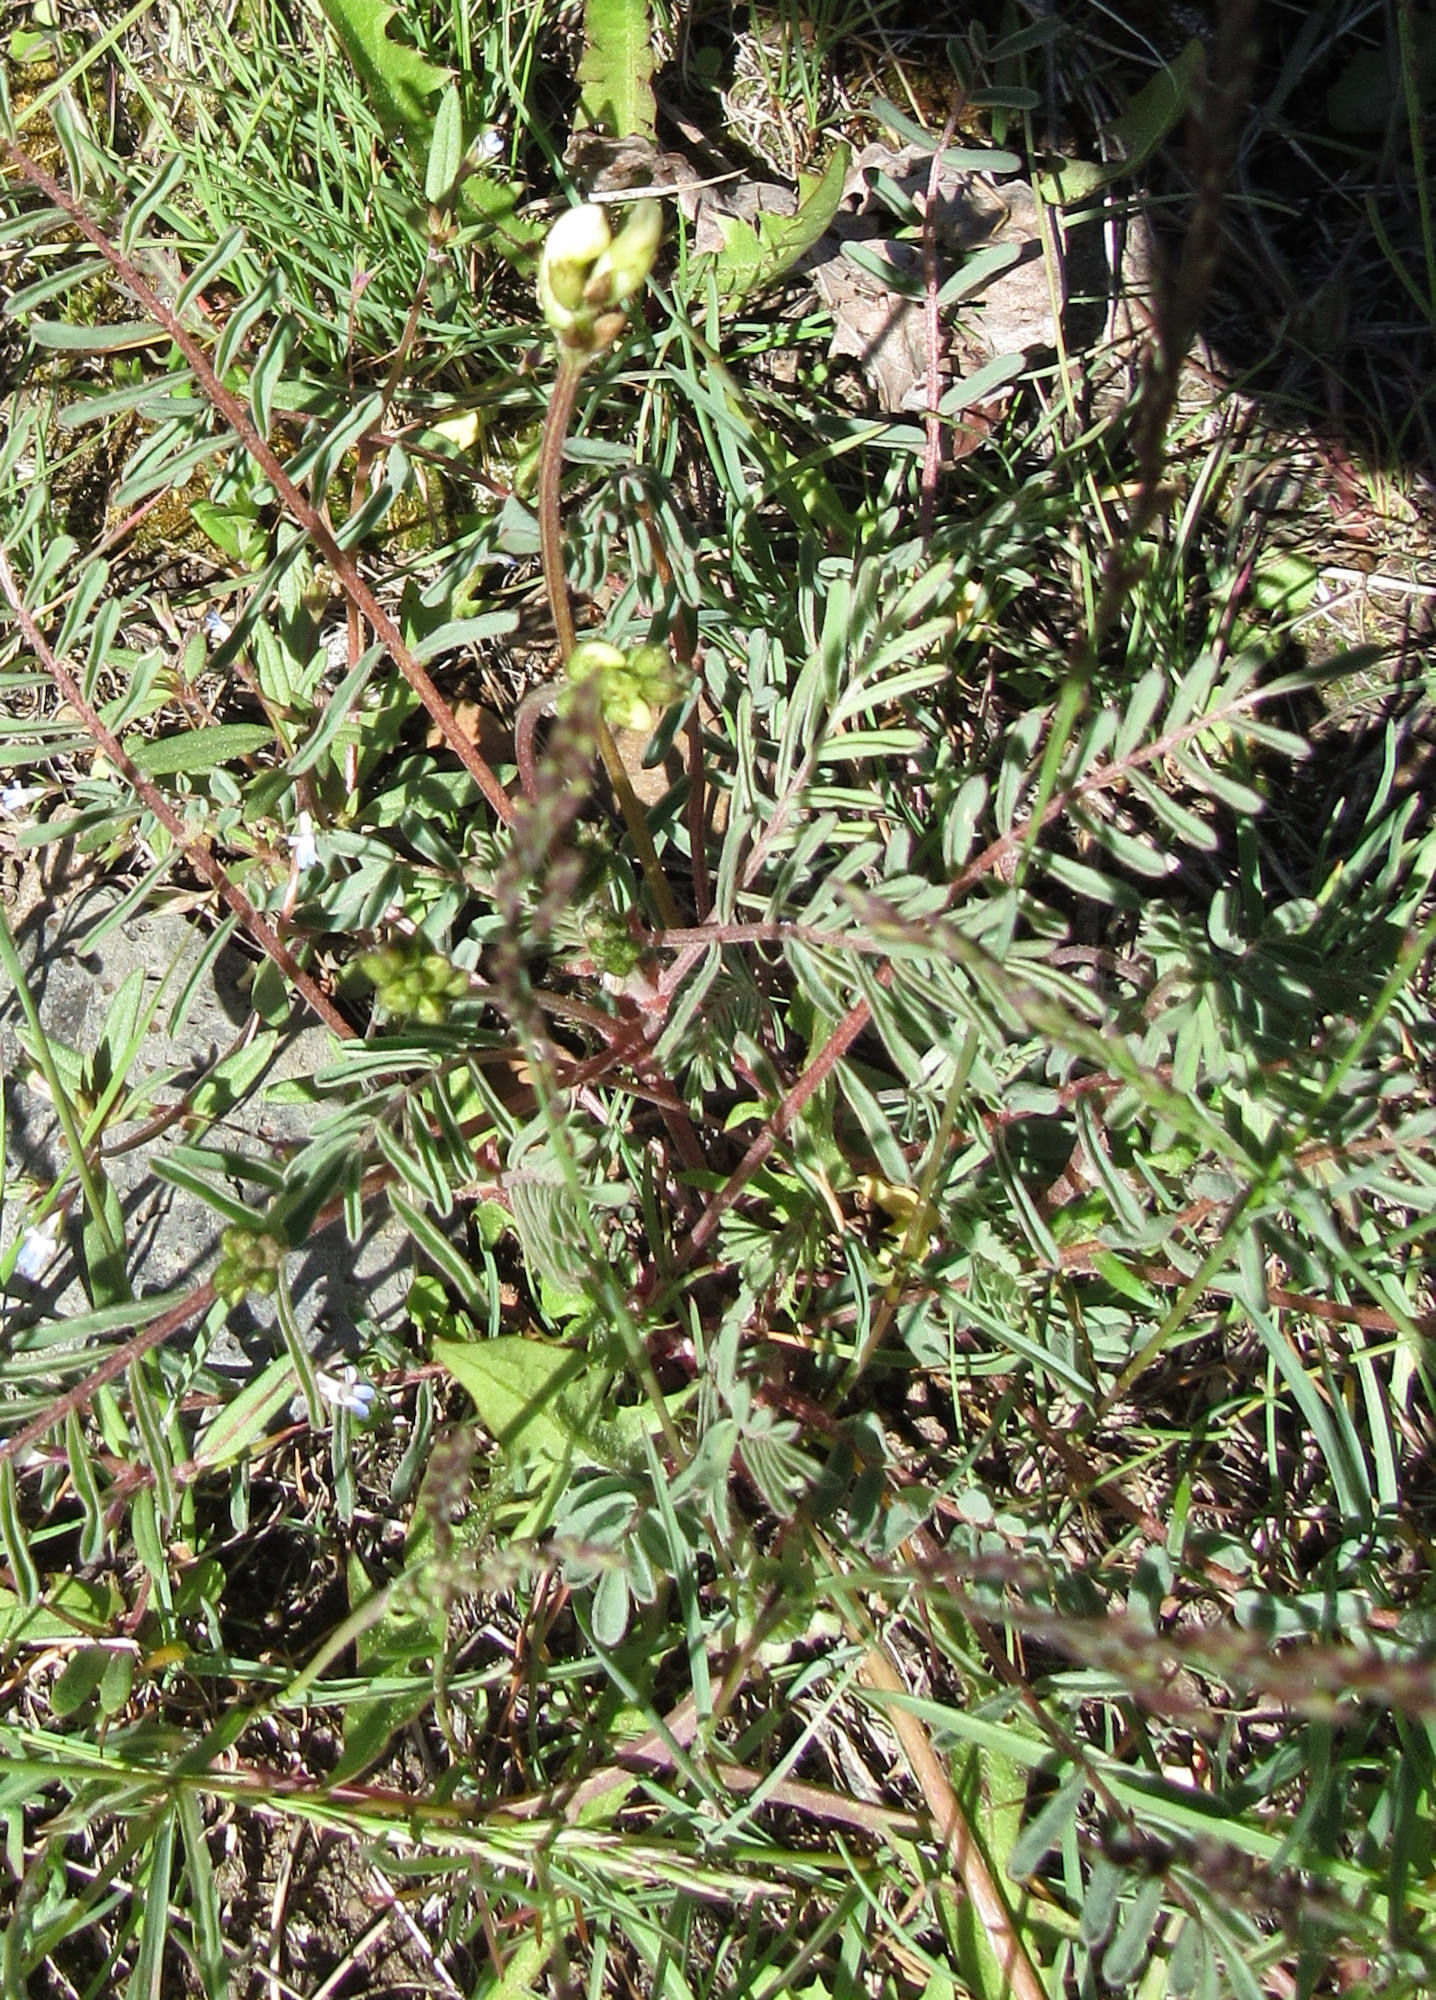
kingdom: Plantae
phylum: Tracheophyta
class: Magnoliopsida
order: Fabales
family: Fabaceae
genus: Astragalus
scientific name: Astragalus atropubescens
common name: Kelsey milk-vetch
